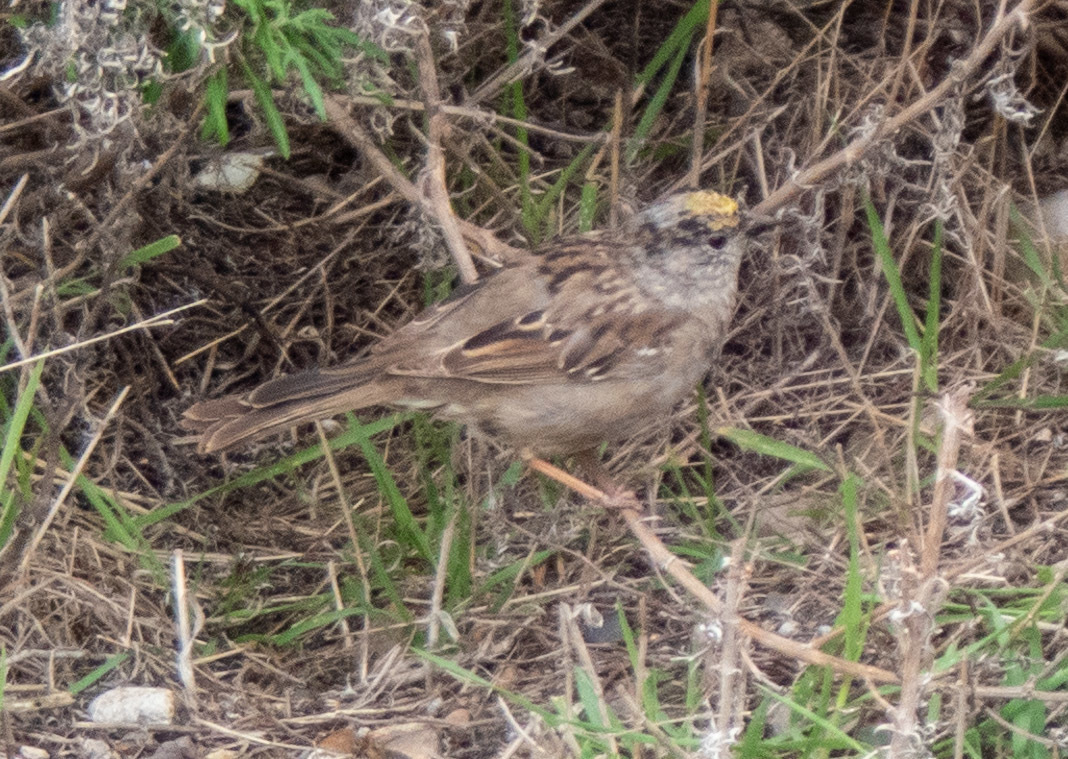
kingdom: Animalia
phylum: Chordata
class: Aves
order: Passeriformes
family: Passerellidae
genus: Zonotrichia
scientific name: Zonotrichia atricapilla
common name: Golden-crowned sparrow
